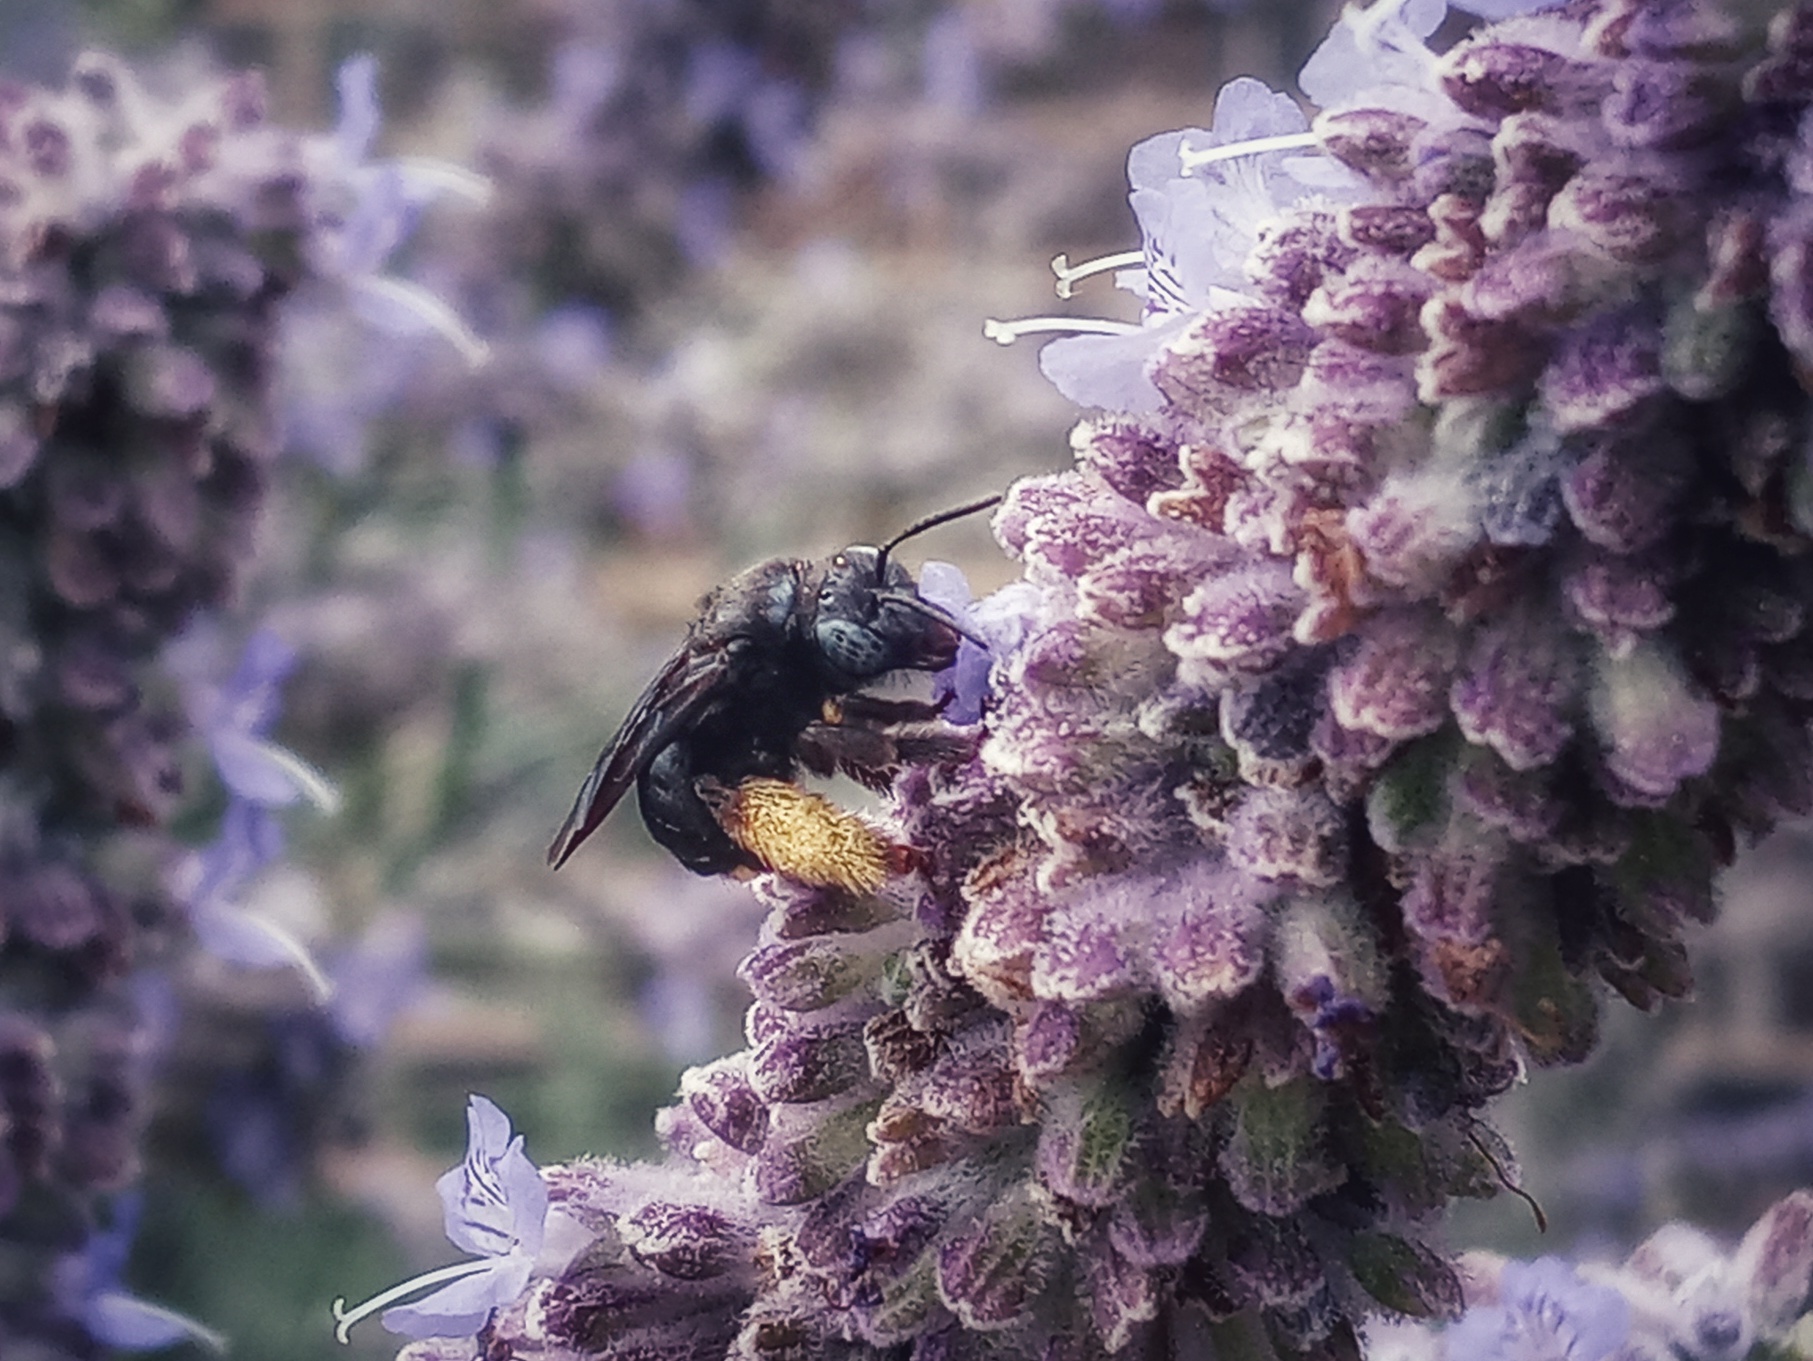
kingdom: Animalia
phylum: Arthropoda
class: Insecta
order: Hymenoptera
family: Apidae
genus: Melissodes
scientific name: Melissodes bimaculatus
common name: Two-spotted long-horned bee
